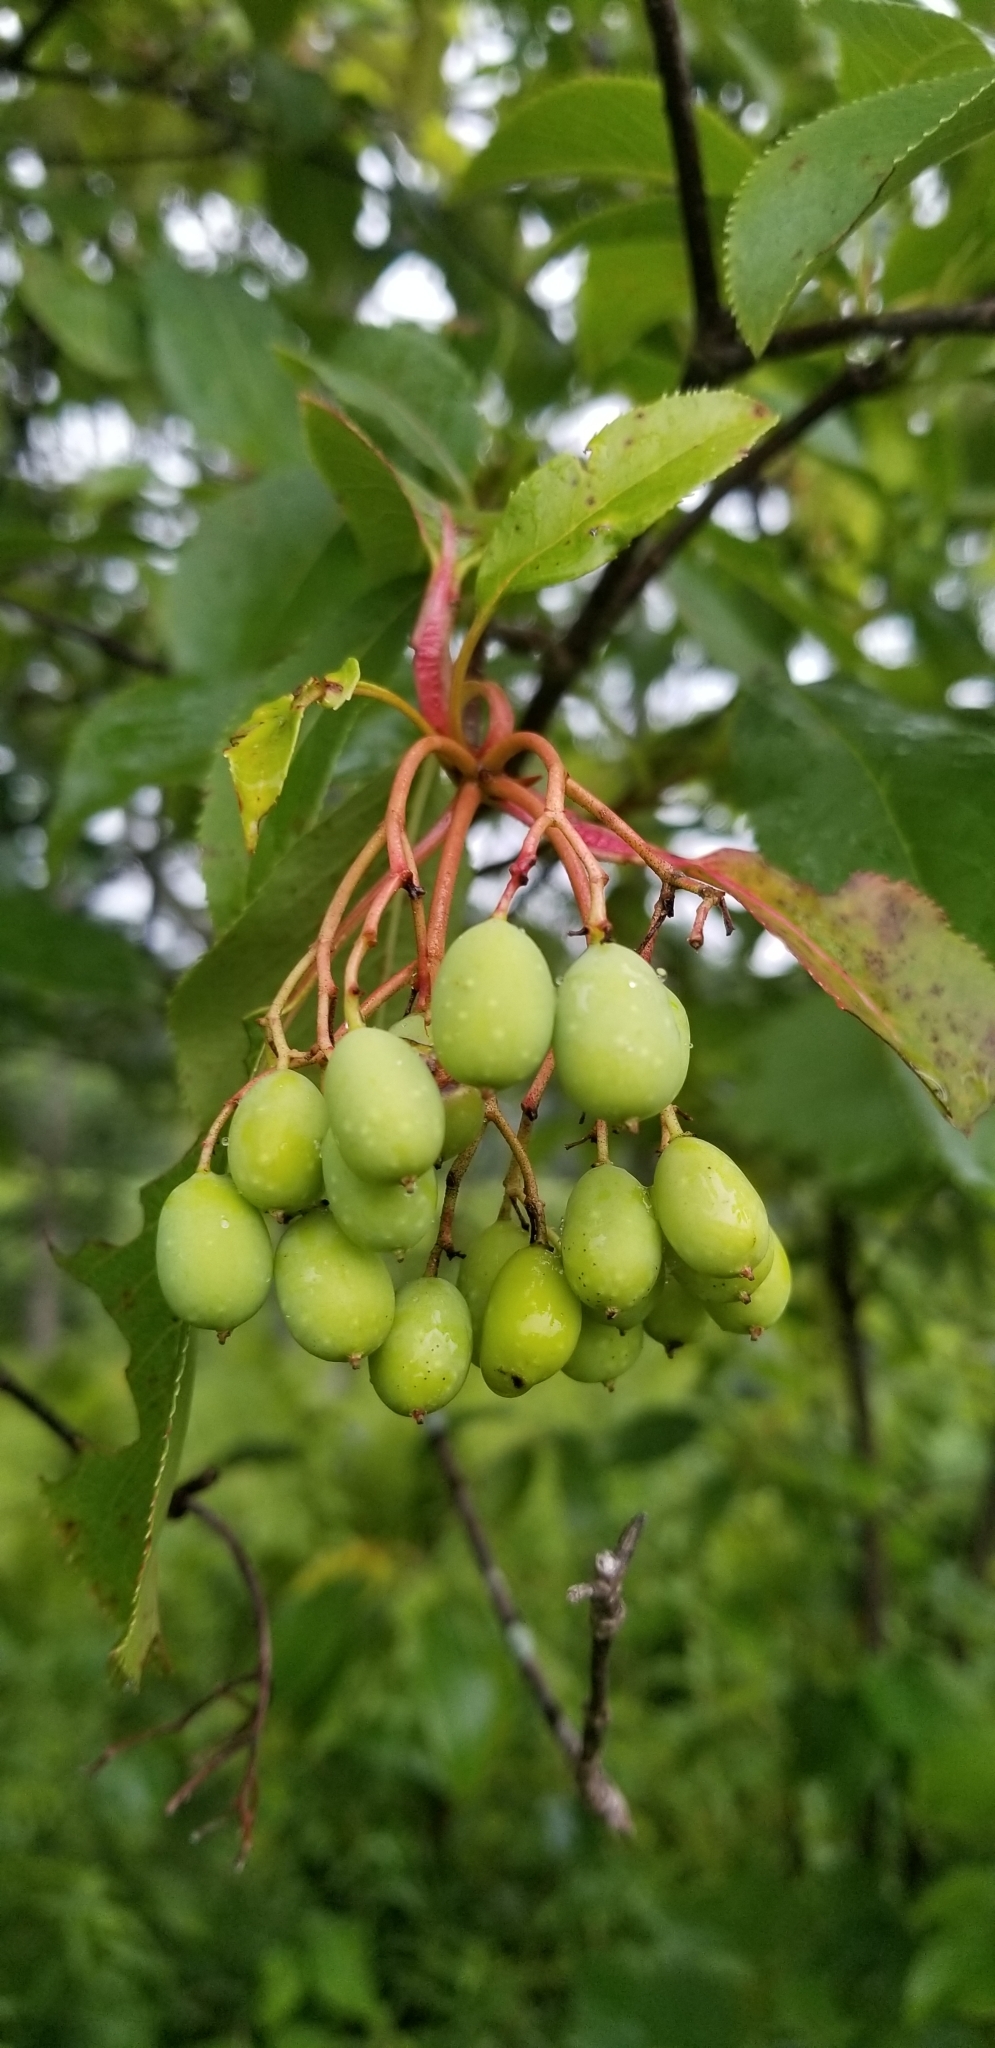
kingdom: Plantae
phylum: Tracheophyta
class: Magnoliopsida
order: Dipsacales
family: Viburnaceae
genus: Viburnum
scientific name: Viburnum lentago
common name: Black haw
